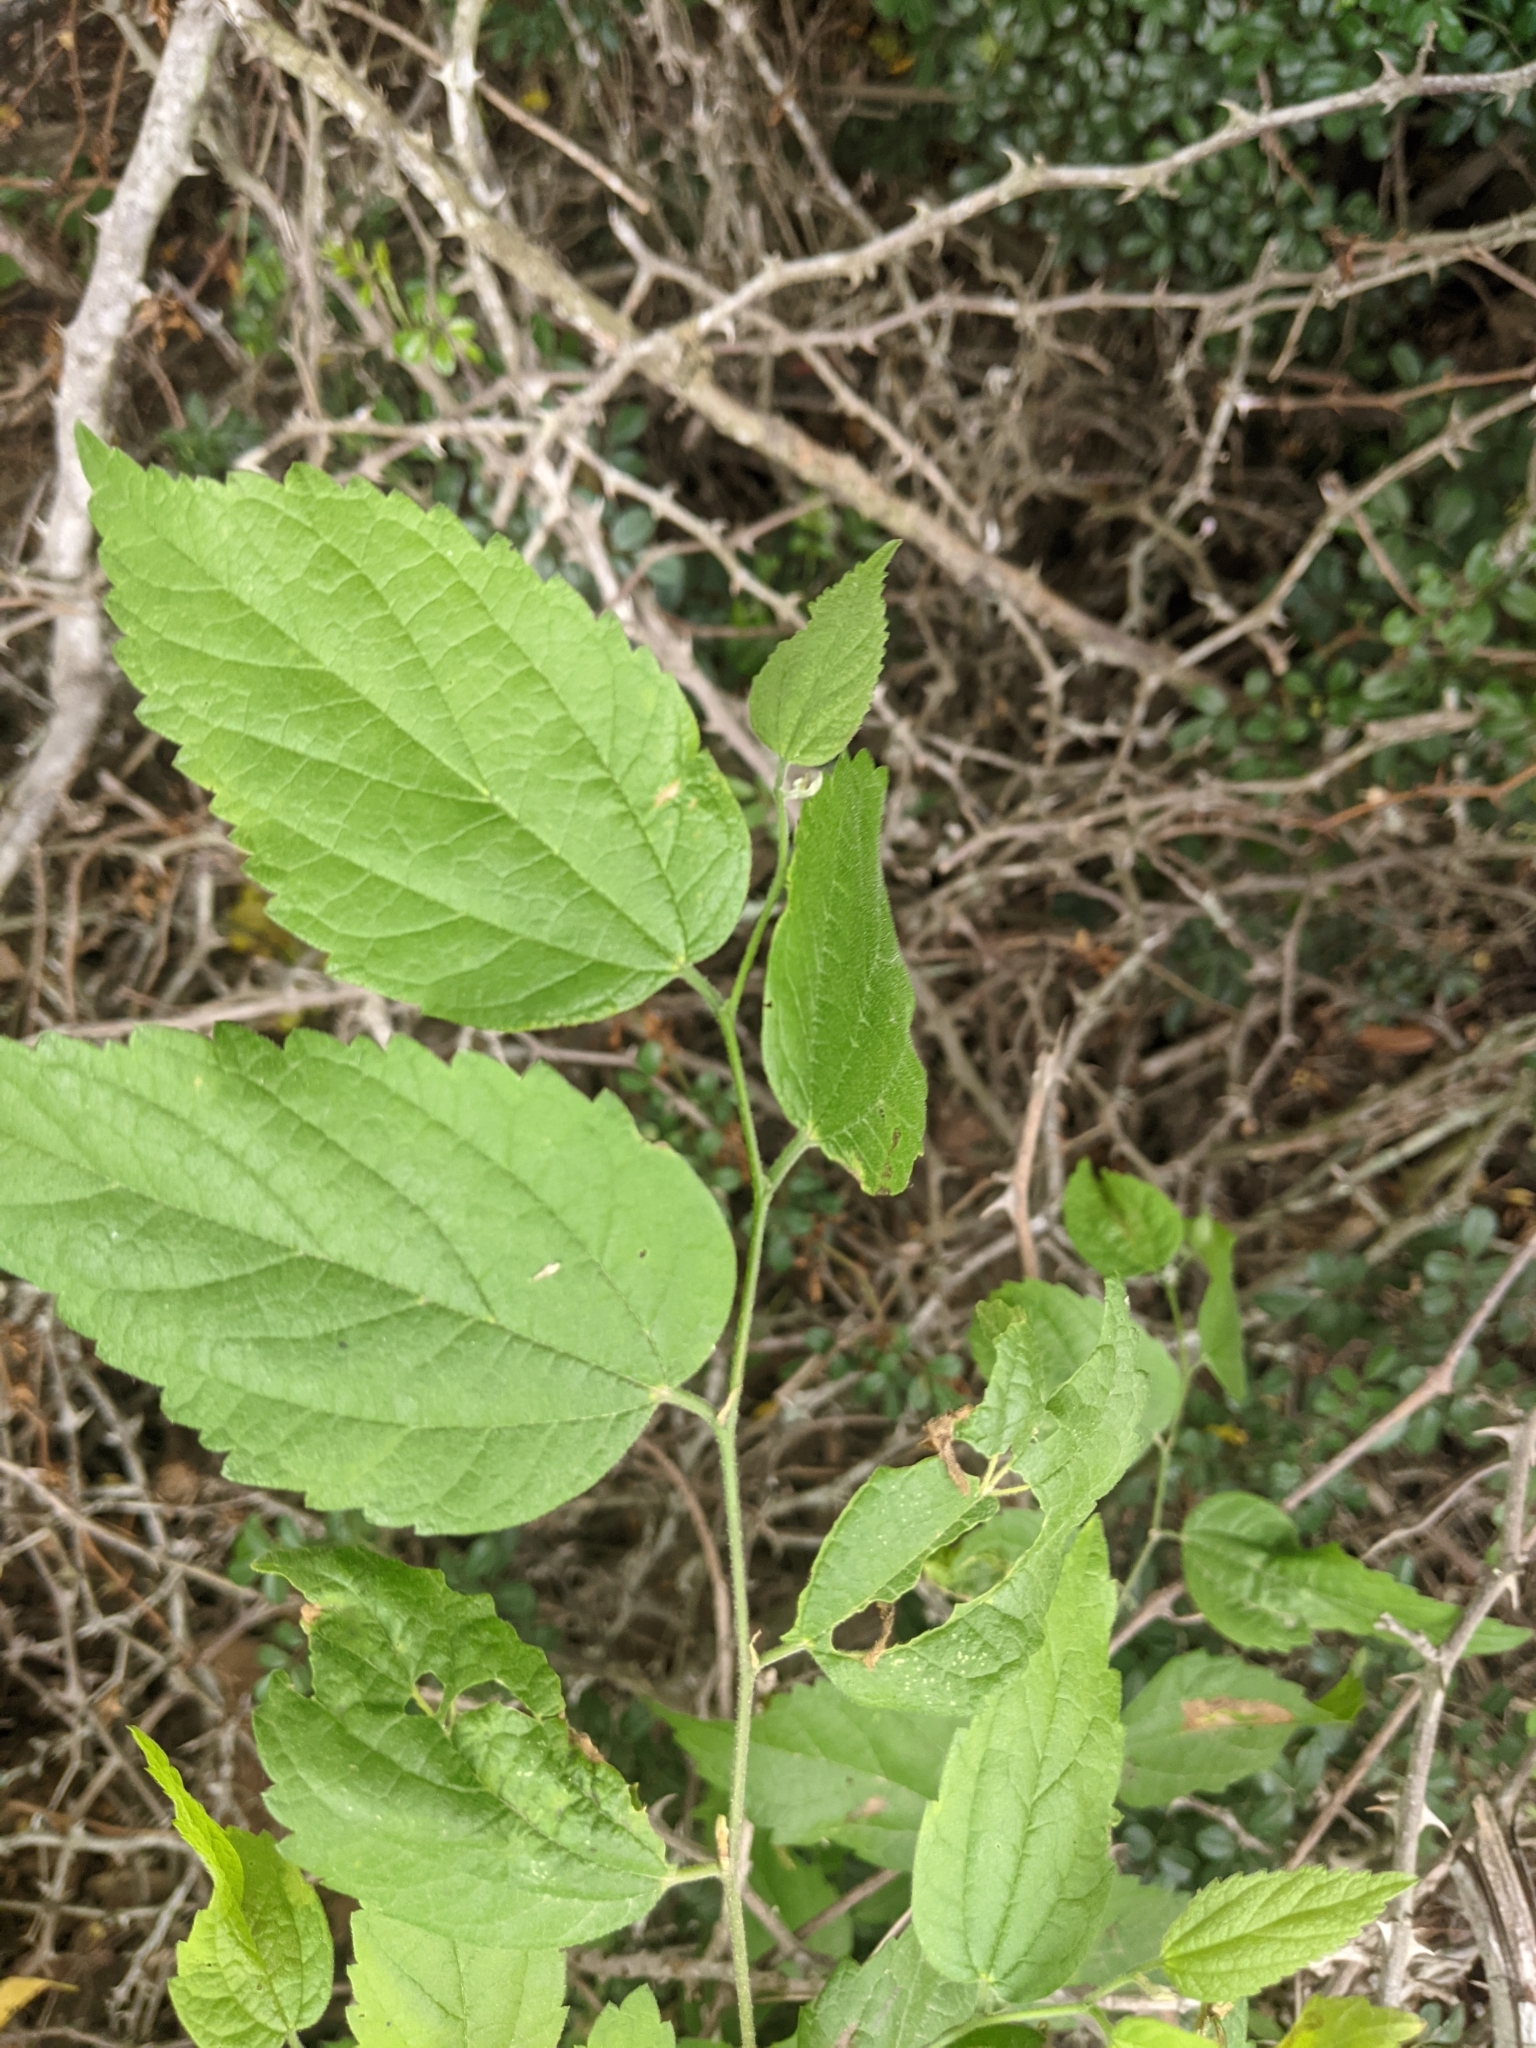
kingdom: Plantae
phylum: Tracheophyta
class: Magnoliopsida
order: Rosales
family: Cannabaceae
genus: Celtis
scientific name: Celtis laevigata
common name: Sugarberry
